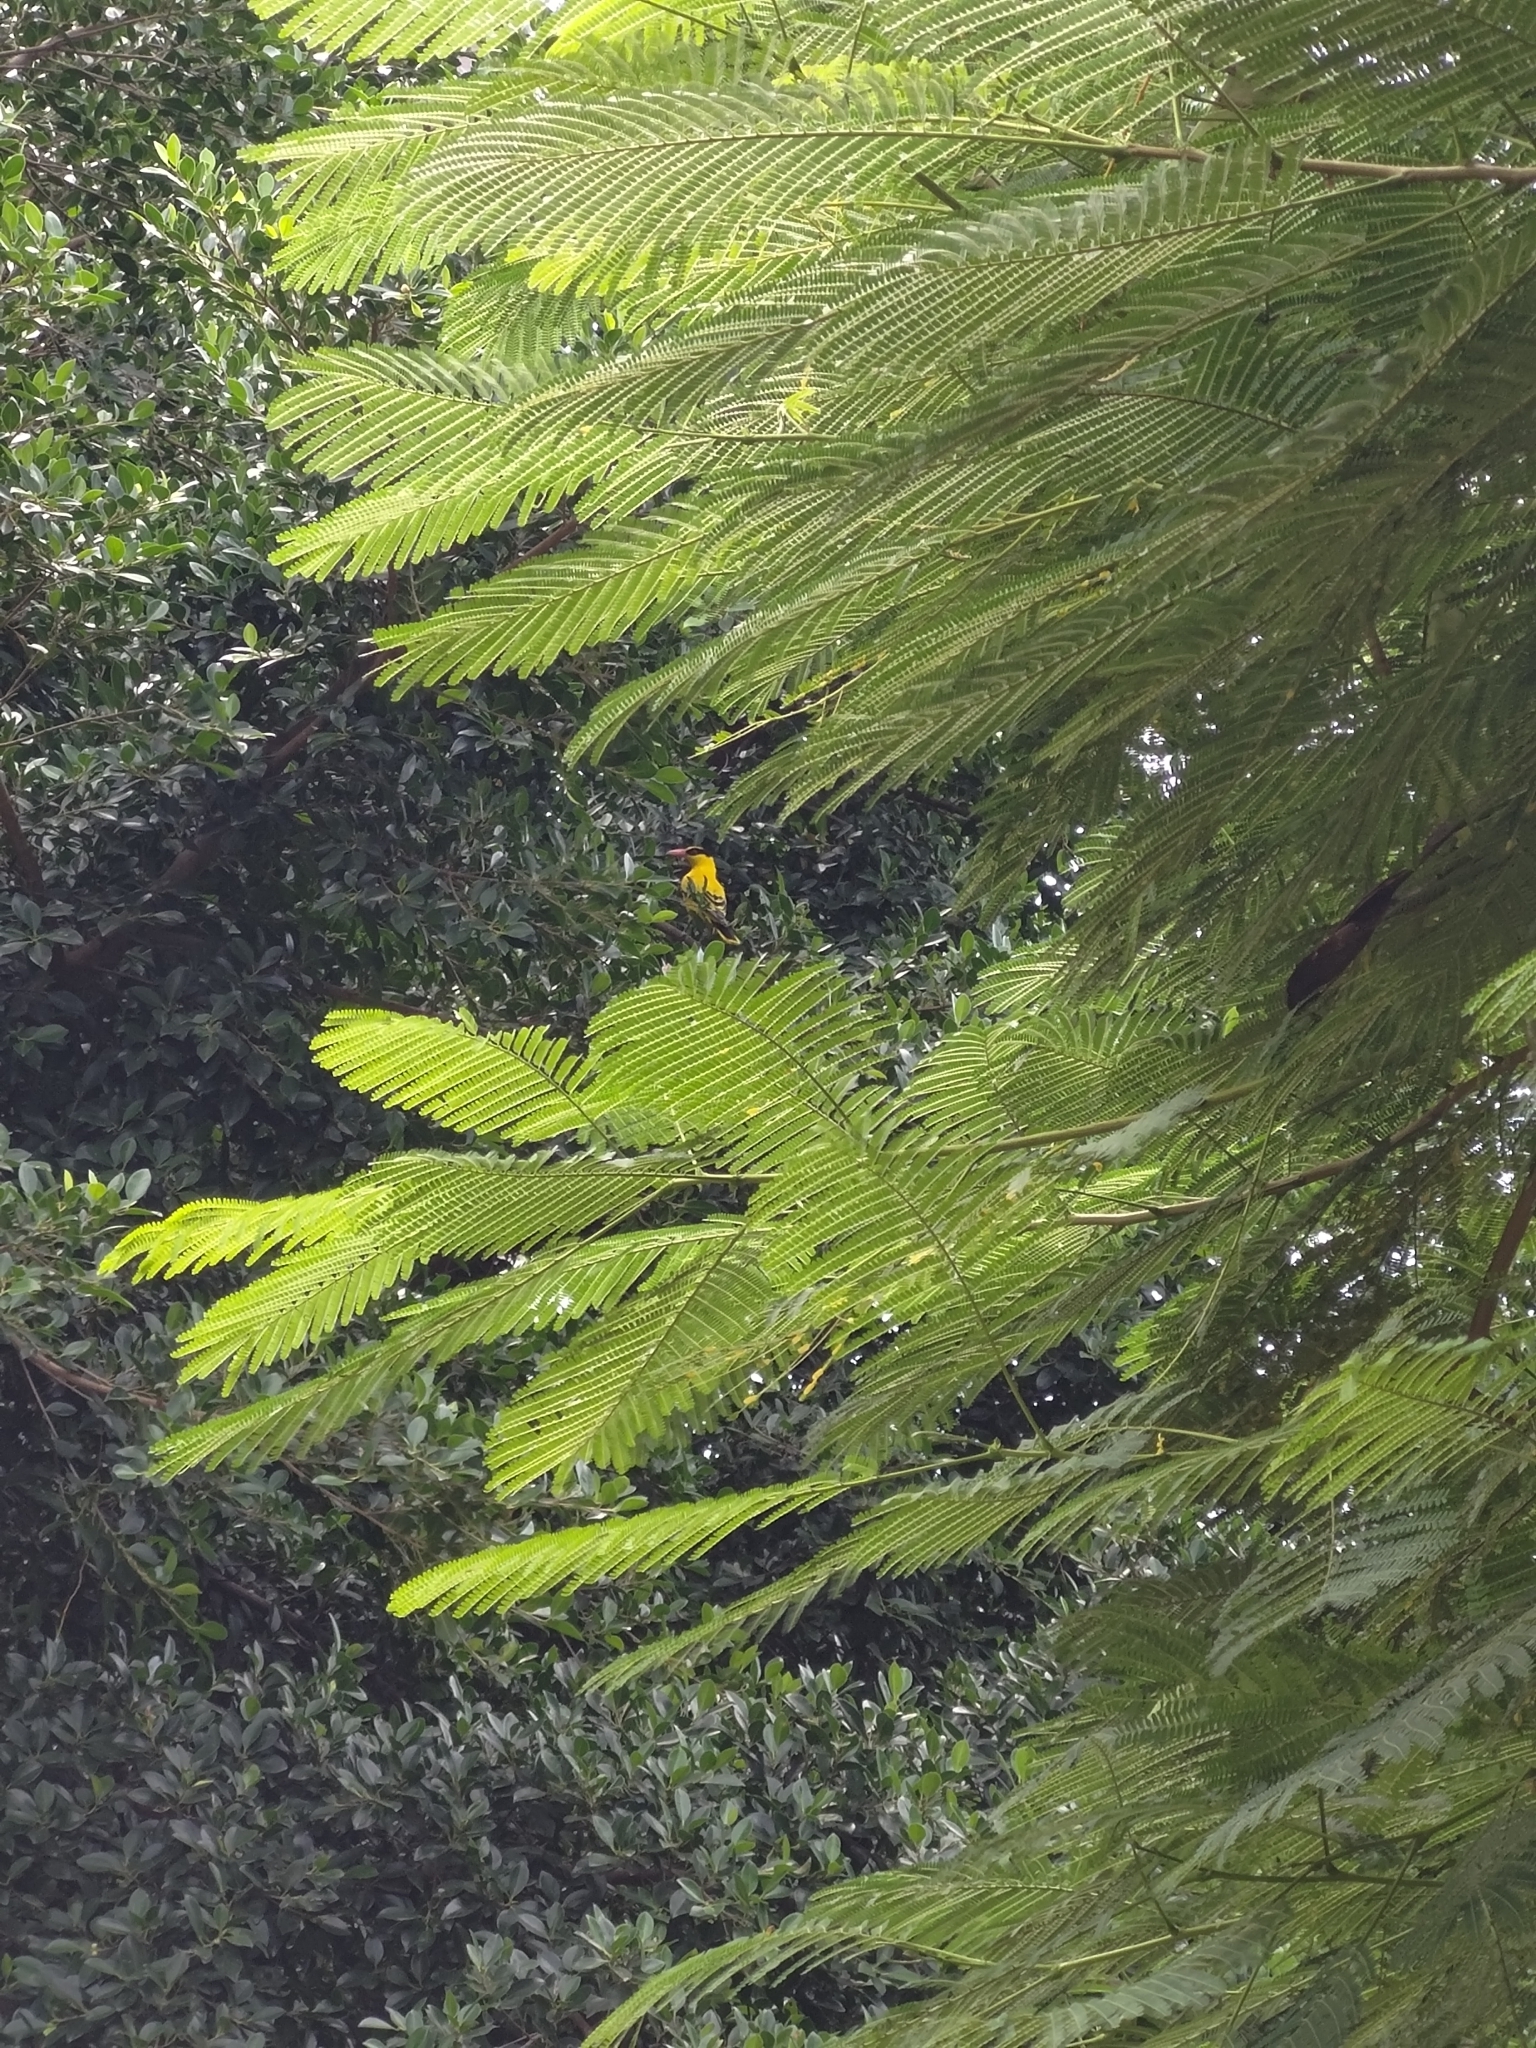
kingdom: Animalia
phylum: Chordata
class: Aves
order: Passeriformes
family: Oriolidae
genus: Oriolus
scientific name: Oriolus chinensis
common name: Black-naped oriole
